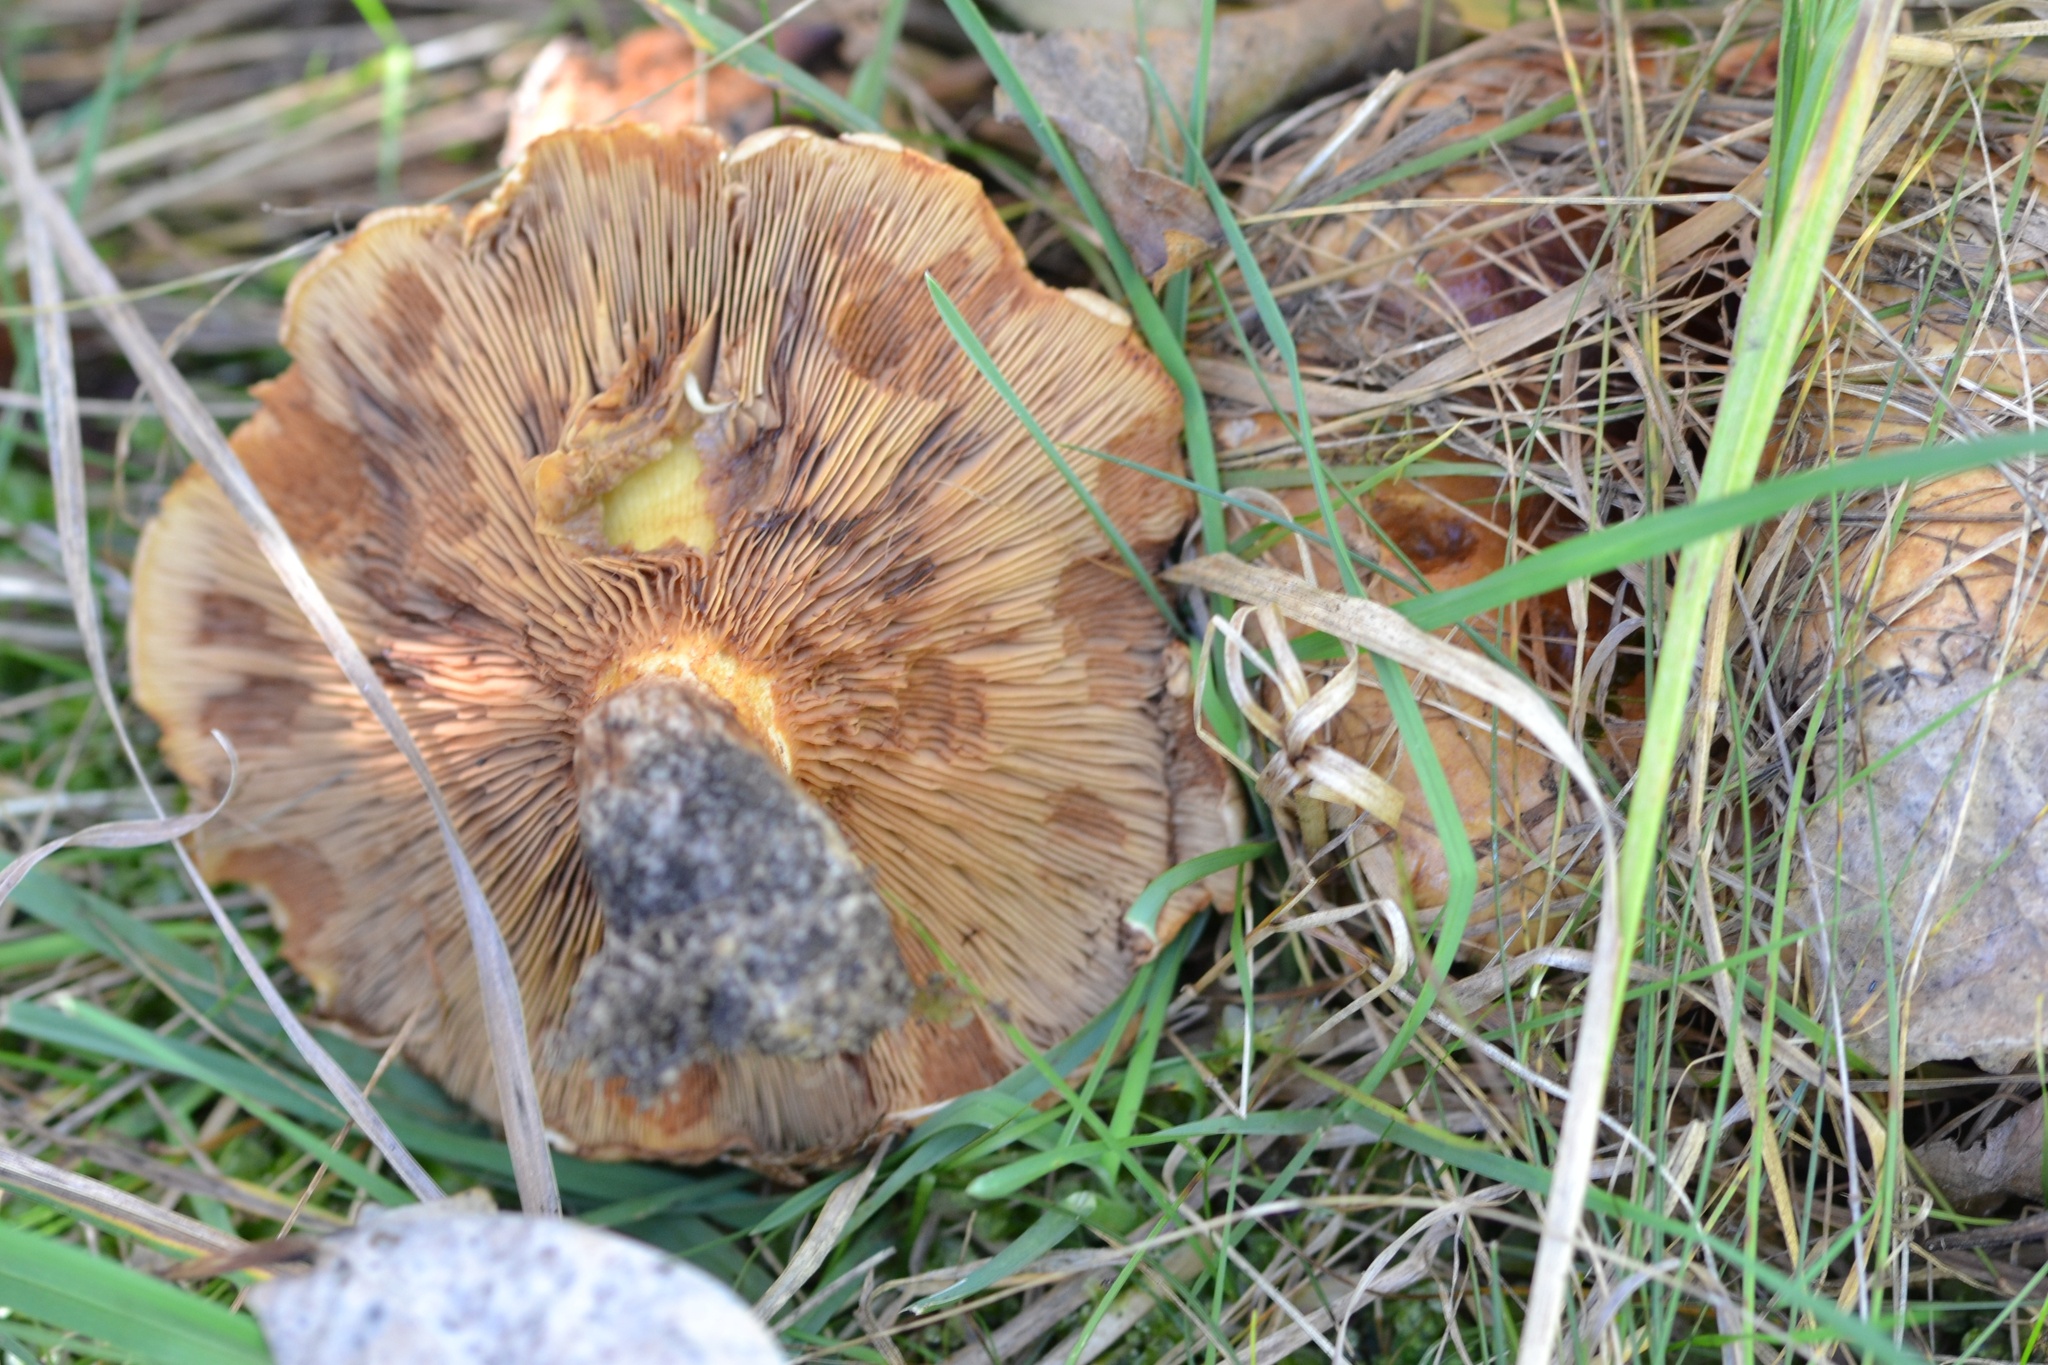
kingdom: Fungi
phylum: Basidiomycota
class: Agaricomycetes
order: Boletales
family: Paxillaceae
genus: Paxillus
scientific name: Paxillus involutus
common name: Brown roll rim
